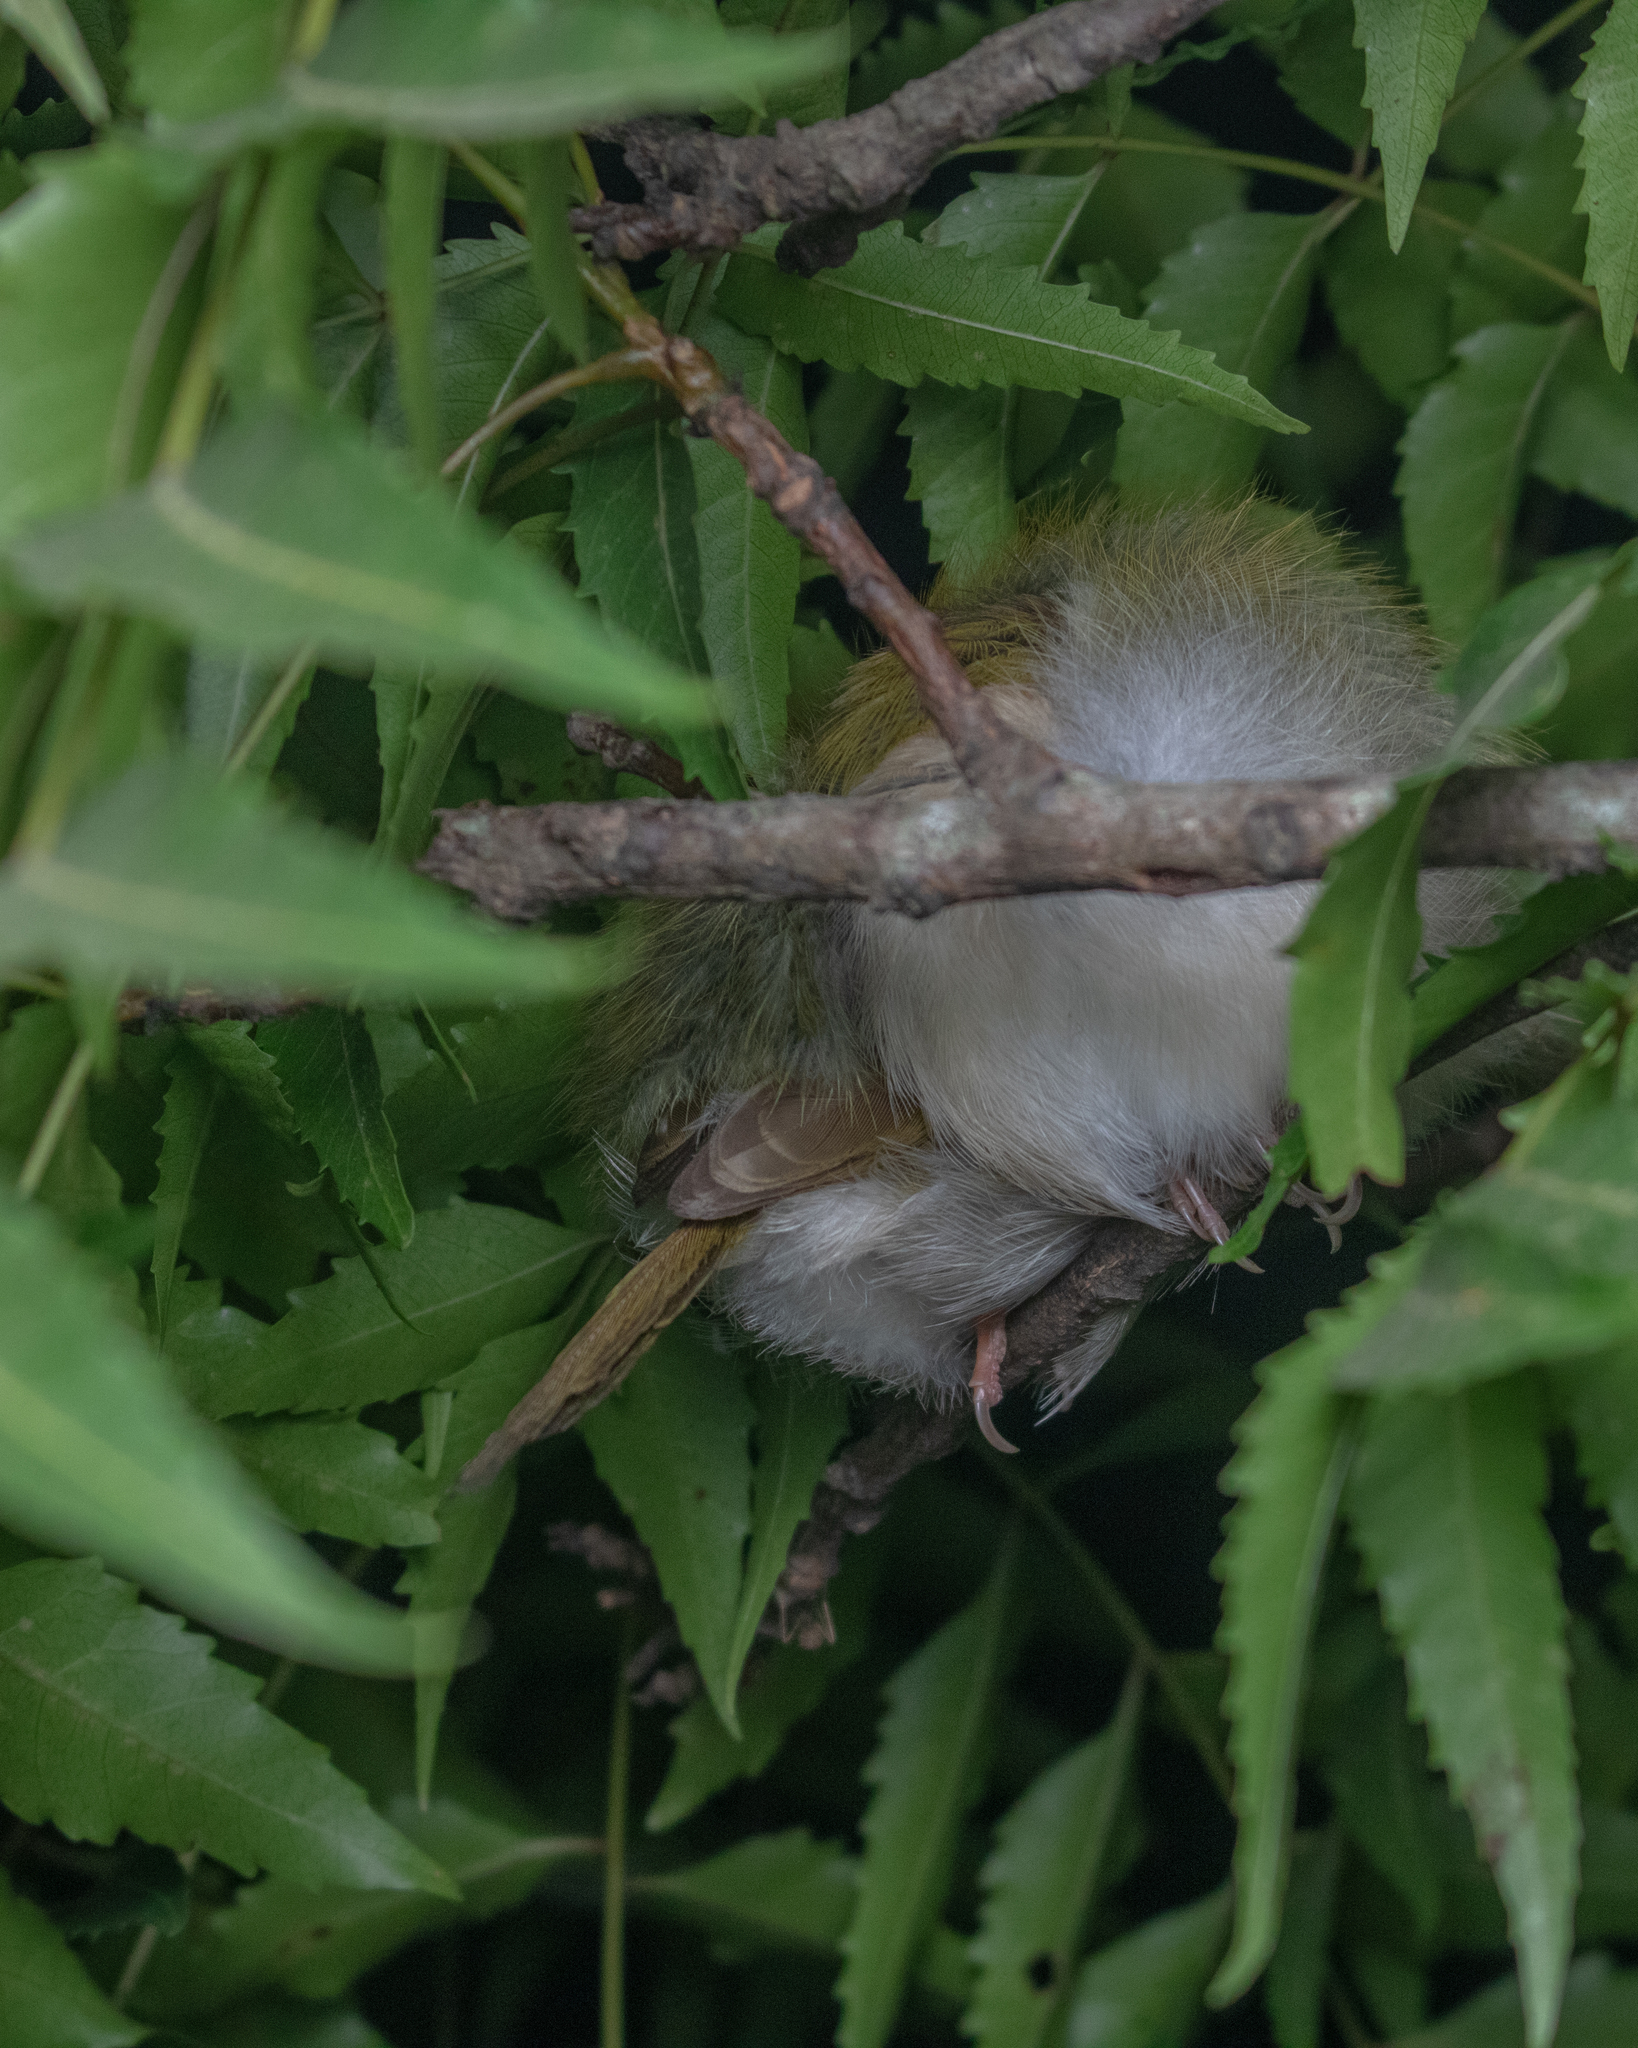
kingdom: Animalia
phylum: Chordata
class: Aves
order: Passeriformes
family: Cisticolidae
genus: Orthotomus
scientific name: Orthotomus sutorius
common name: Common tailorbird
